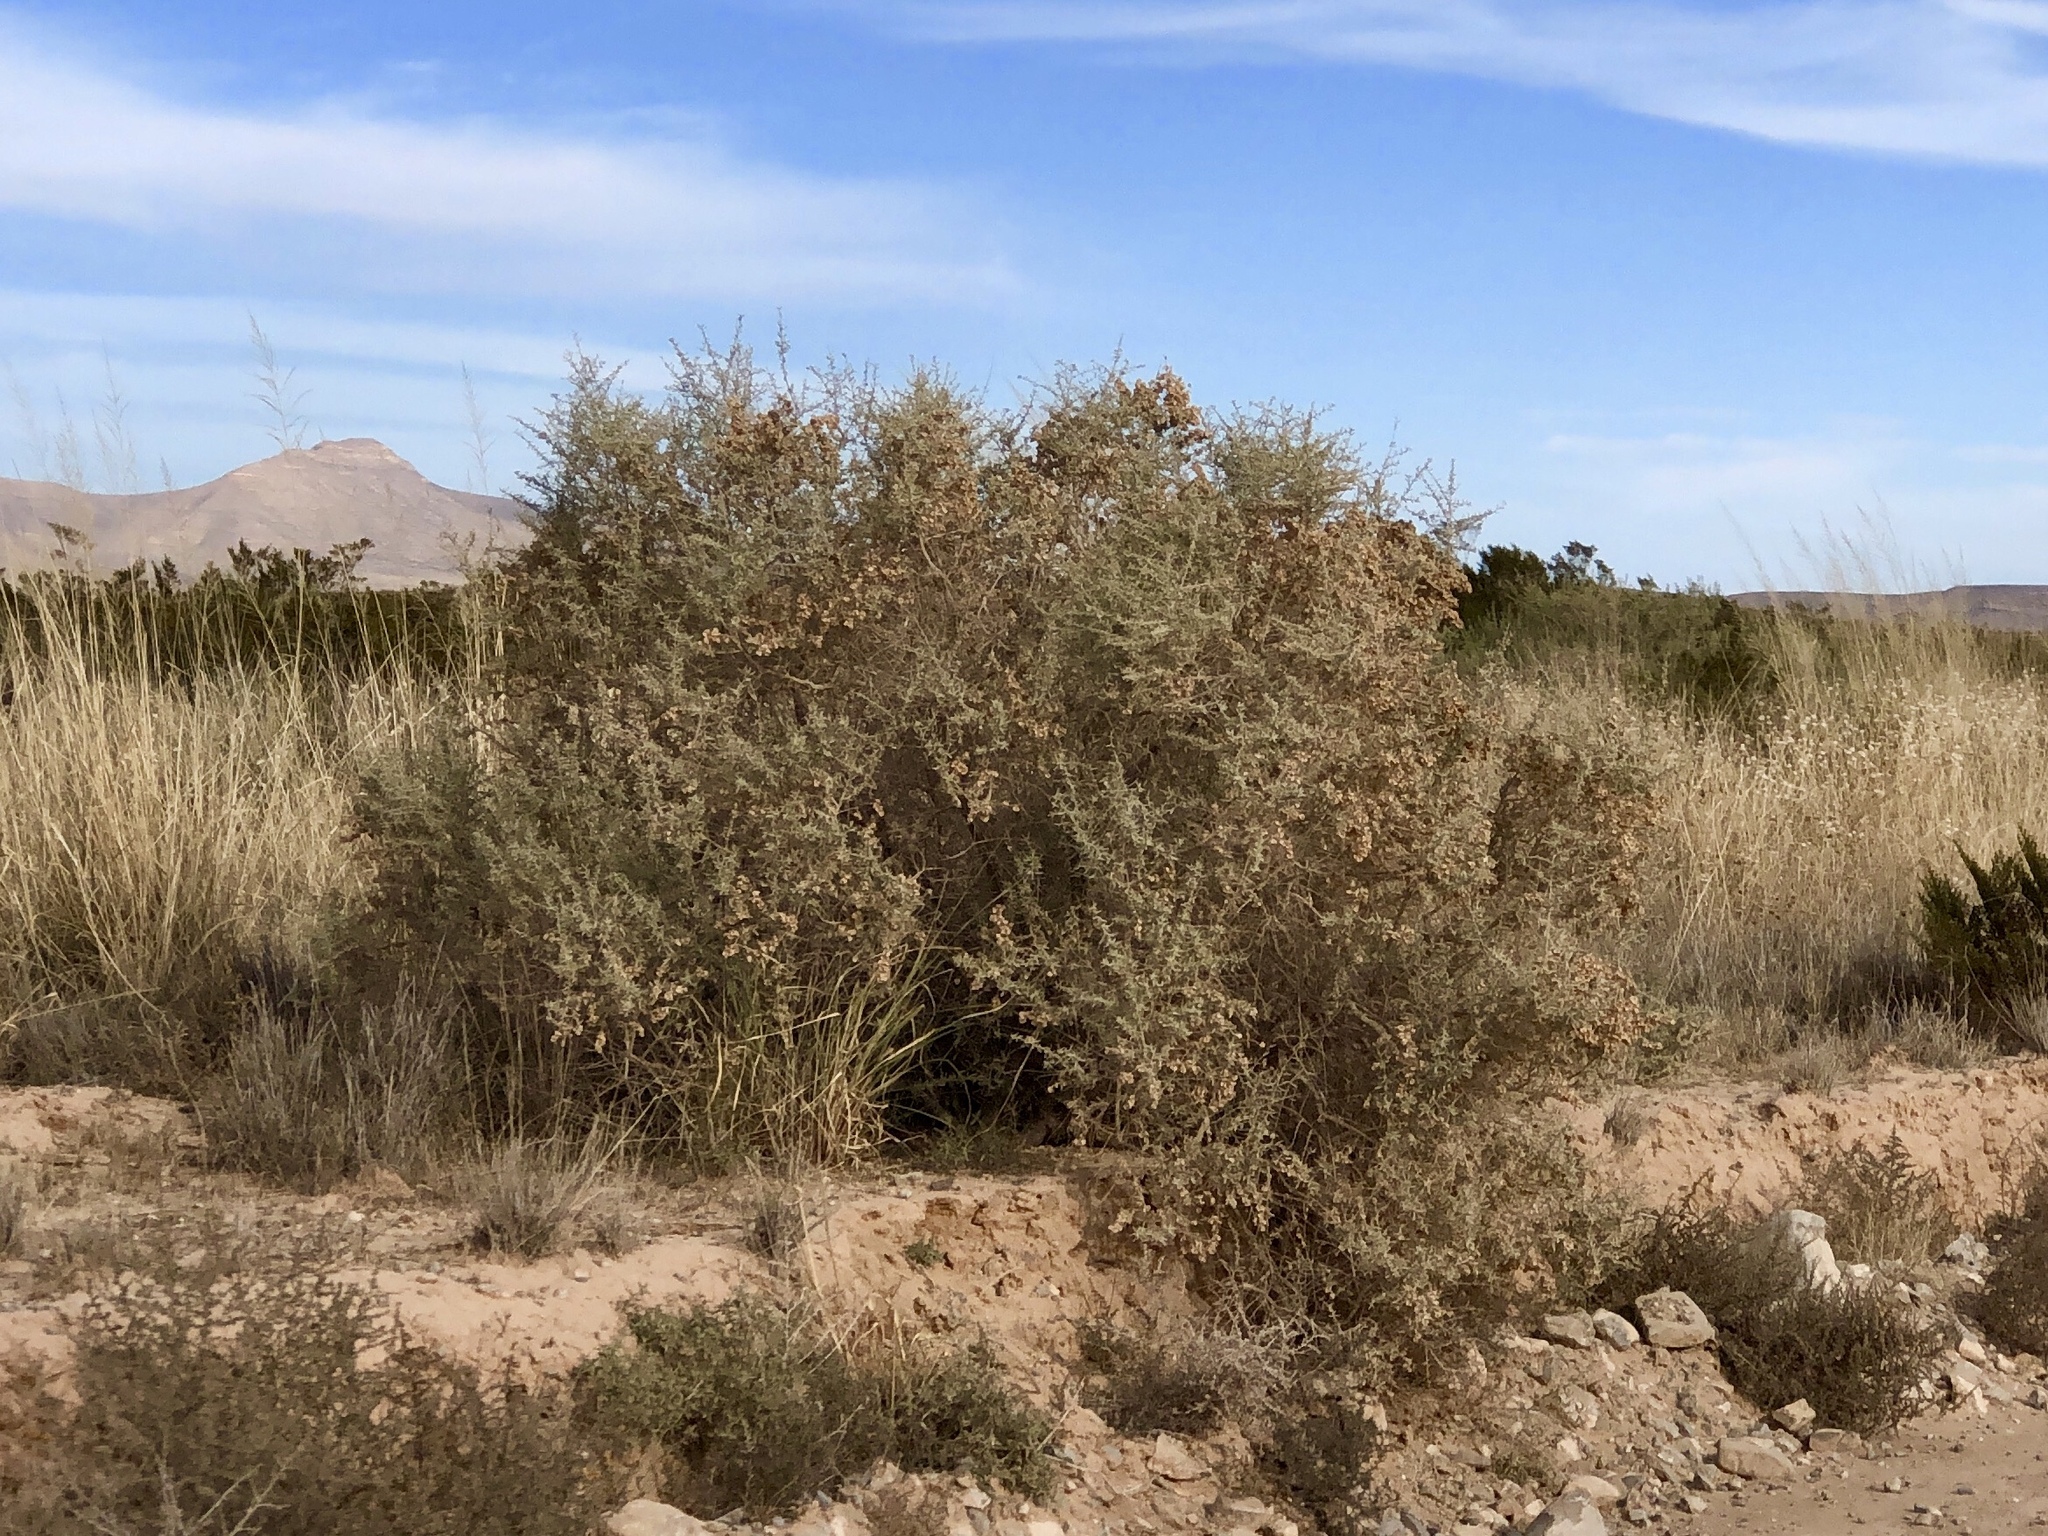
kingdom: Plantae
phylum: Tracheophyta
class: Magnoliopsida
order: Caryophyllales
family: Amaranthaceae
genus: Atriplex
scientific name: Atriplex canescens
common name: Four-wing saltbush
